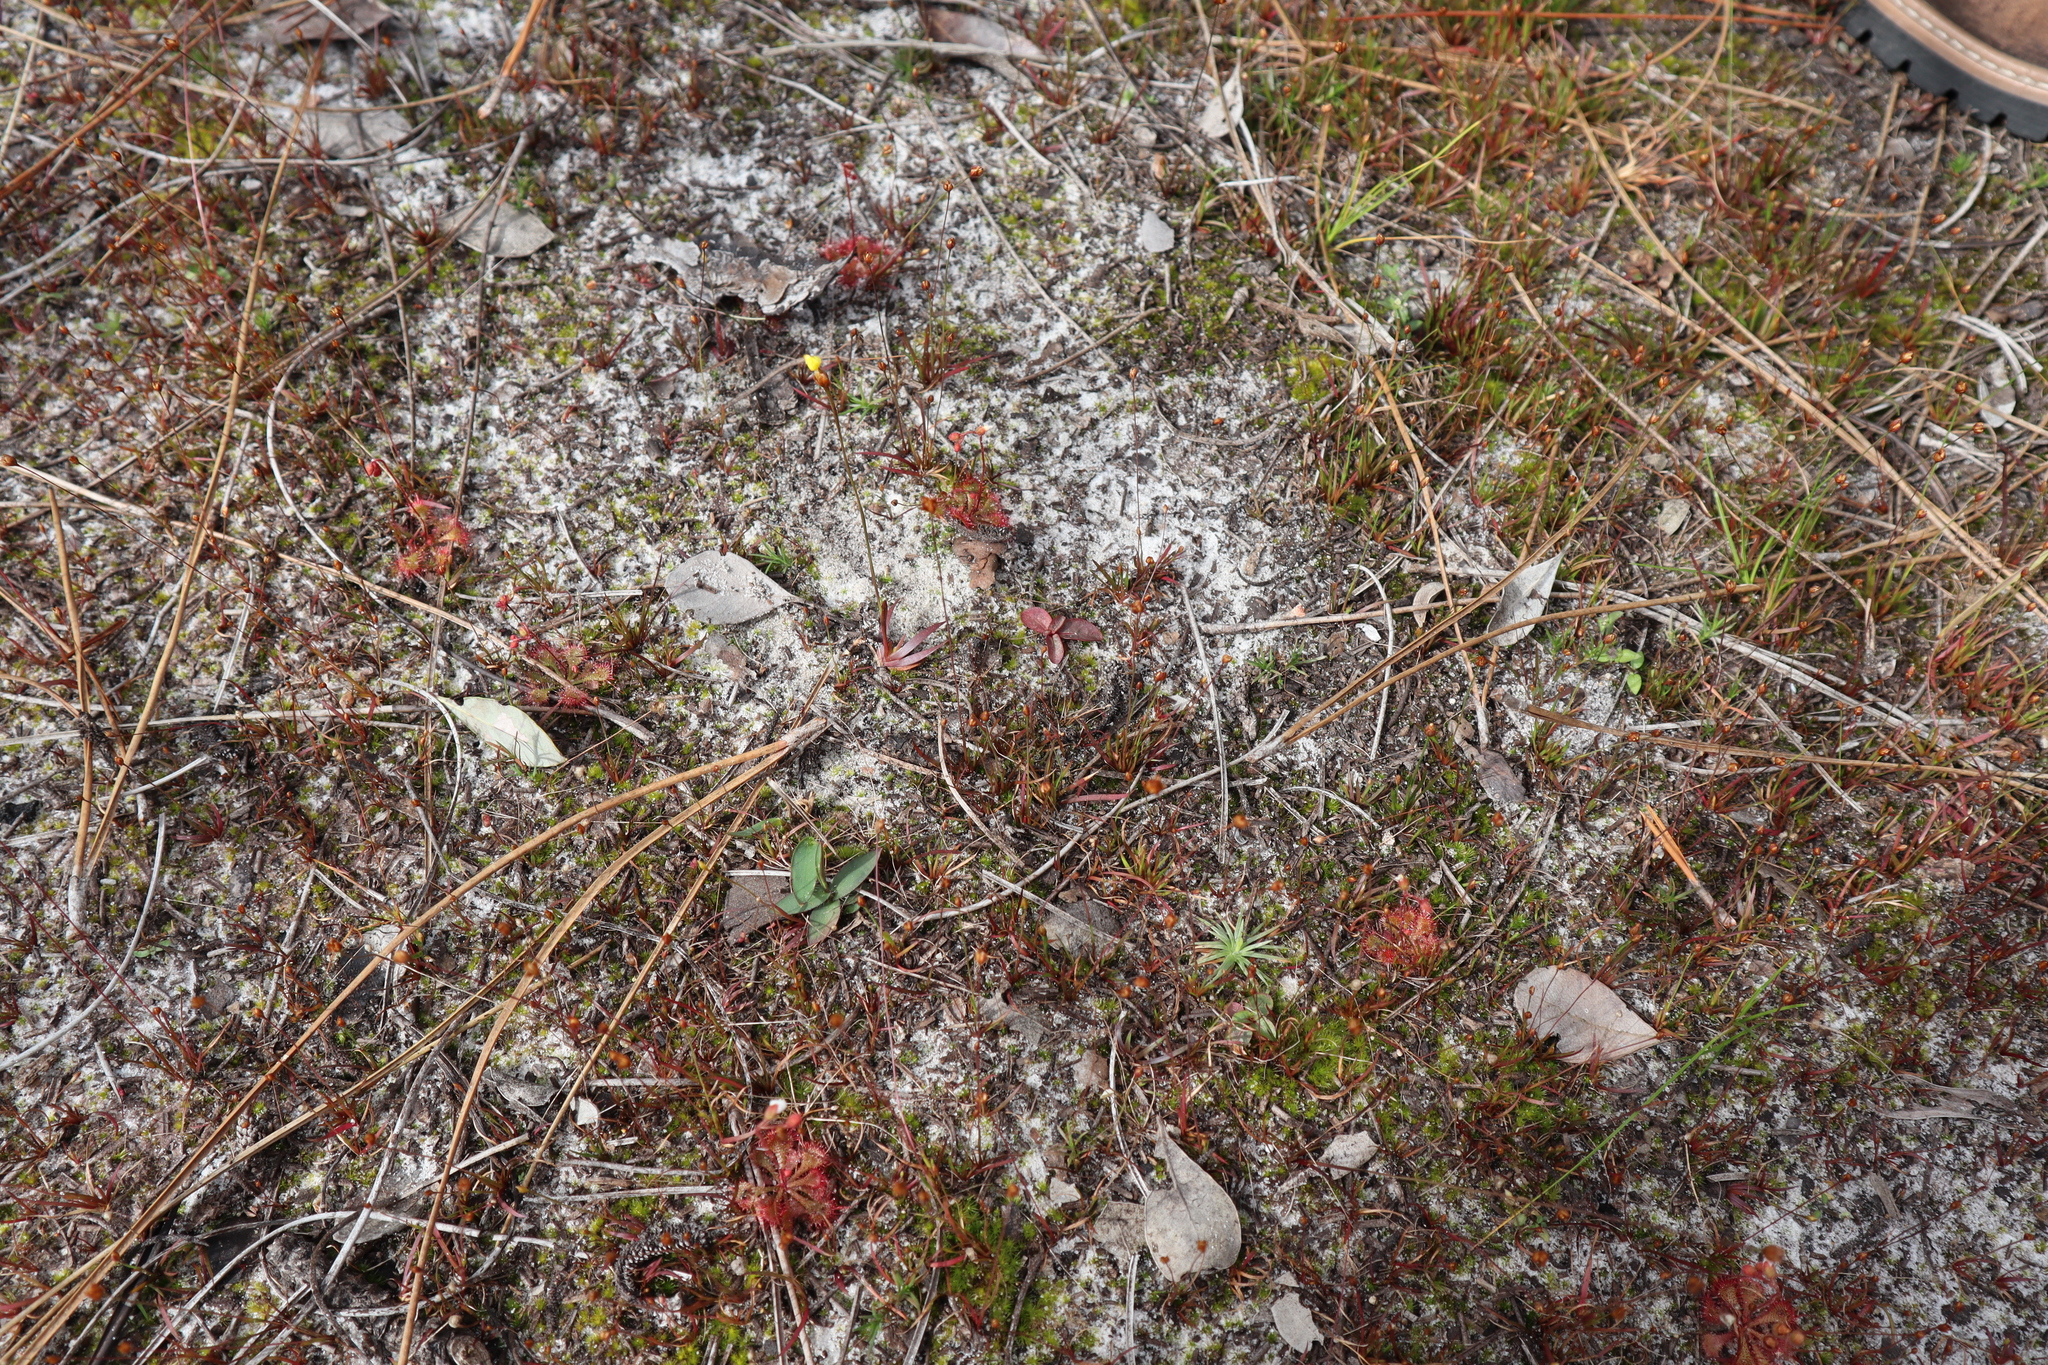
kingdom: Plantae
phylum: Tracheophyta
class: Liliopsida
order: Poales
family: Xyridaceae
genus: Xyris
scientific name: Xyris flabelliformis
